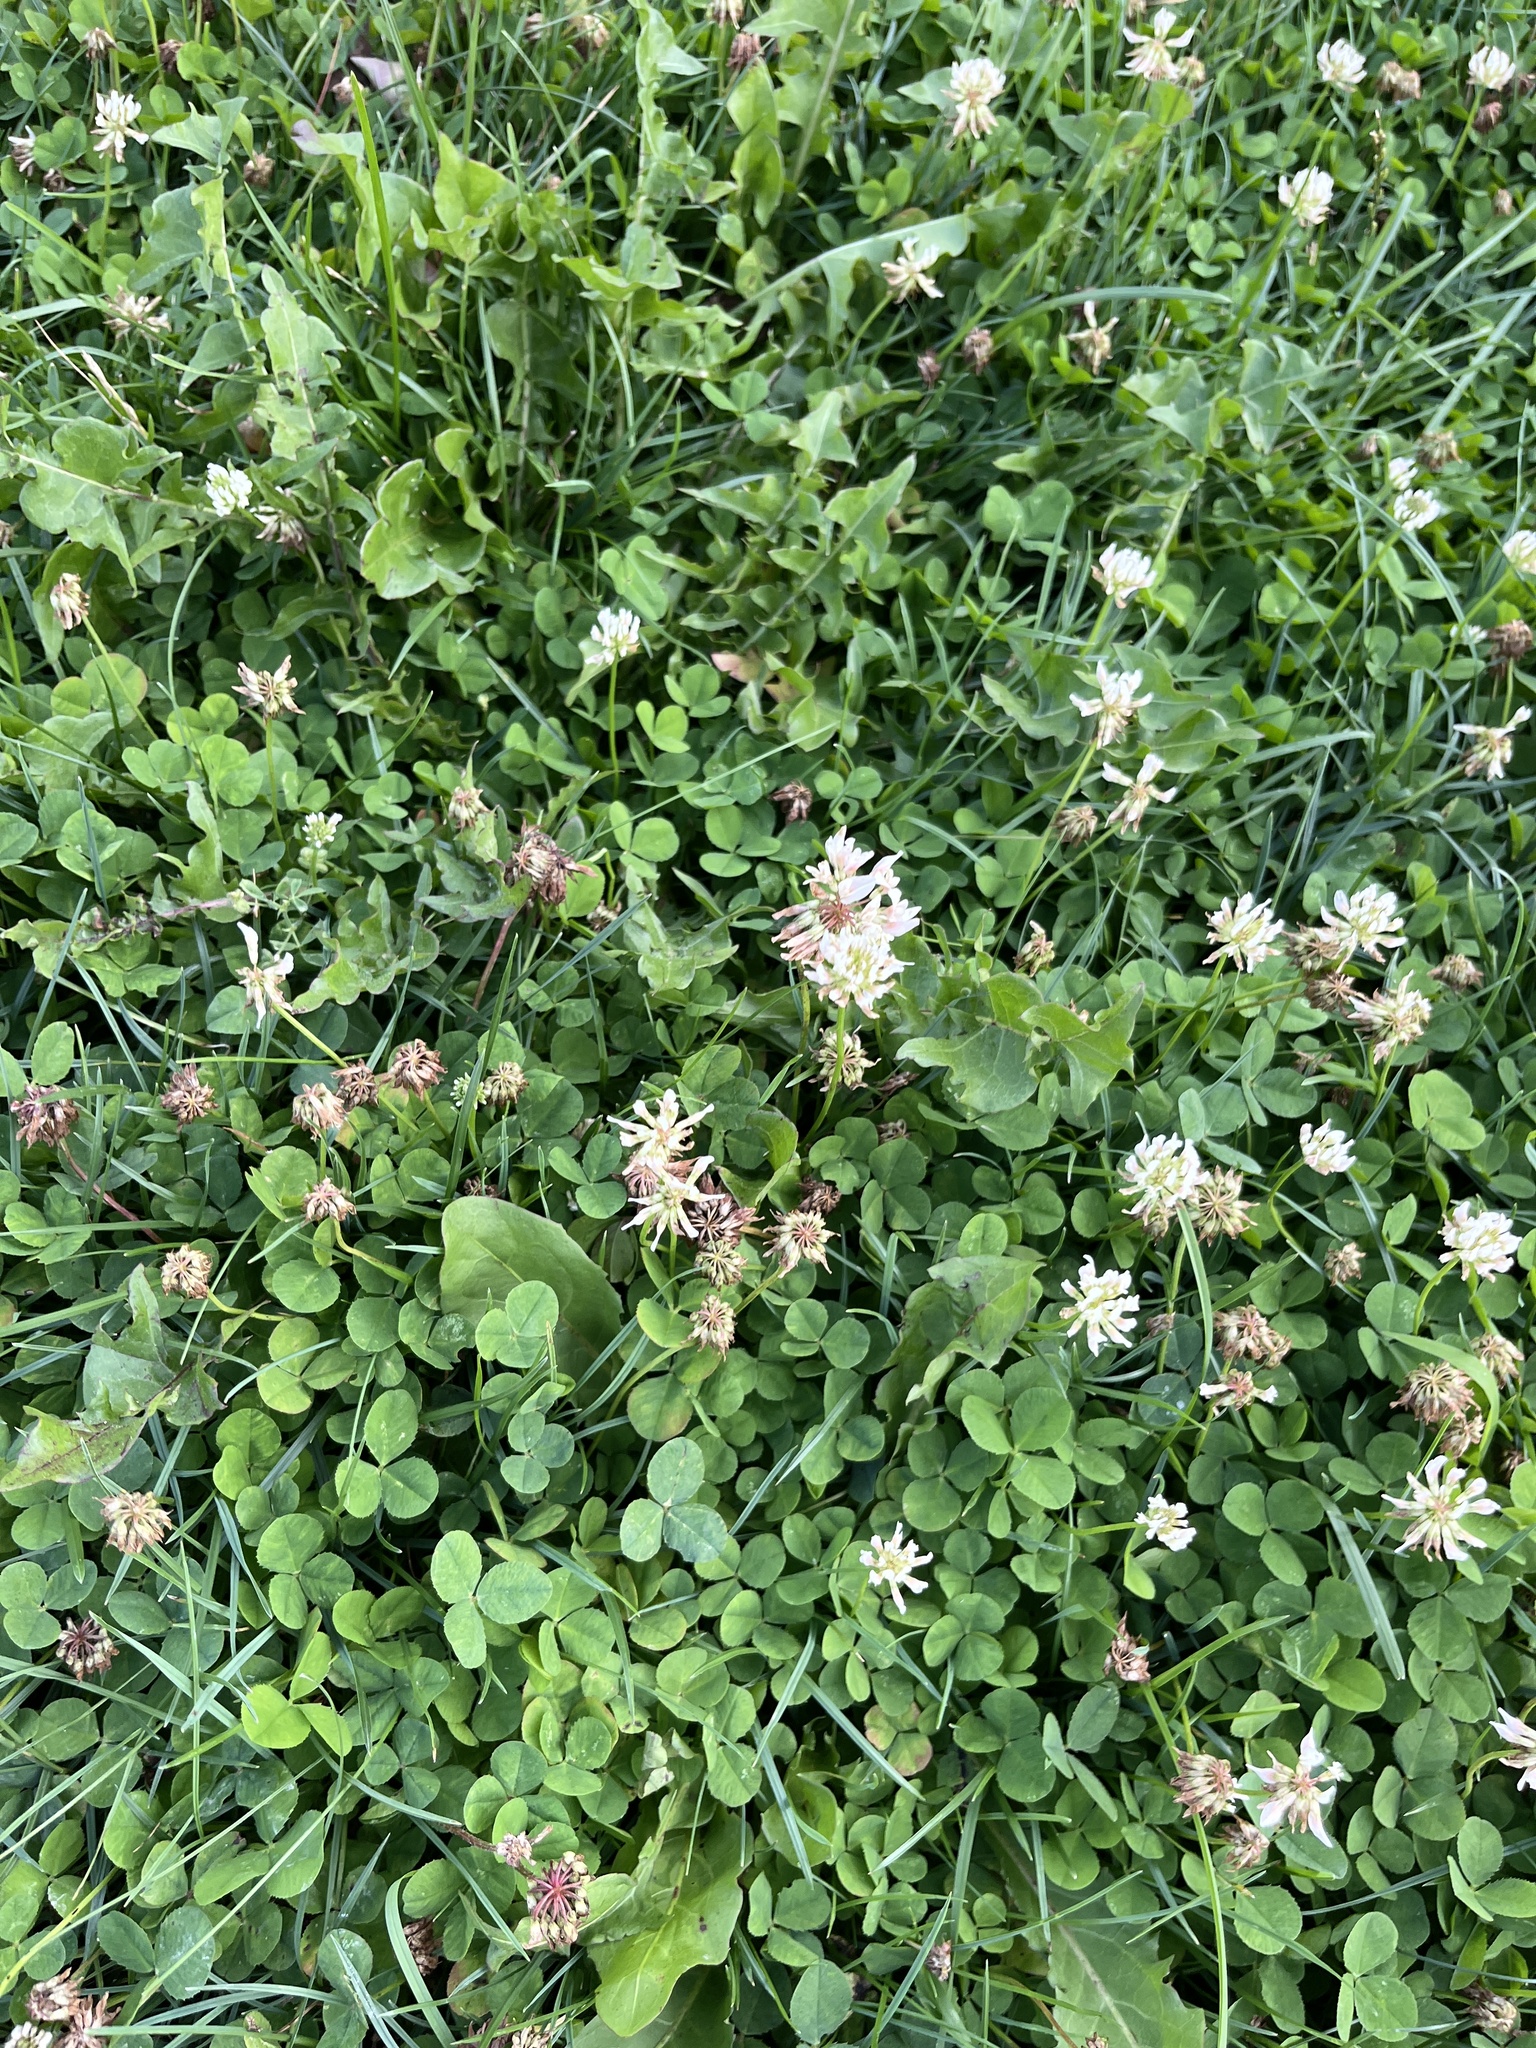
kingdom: Plantae
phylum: Tracheophyta
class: Magnoliopsida
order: Fabales
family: Fabaceae
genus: Trifolium
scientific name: Trifolium repens
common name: White clover
